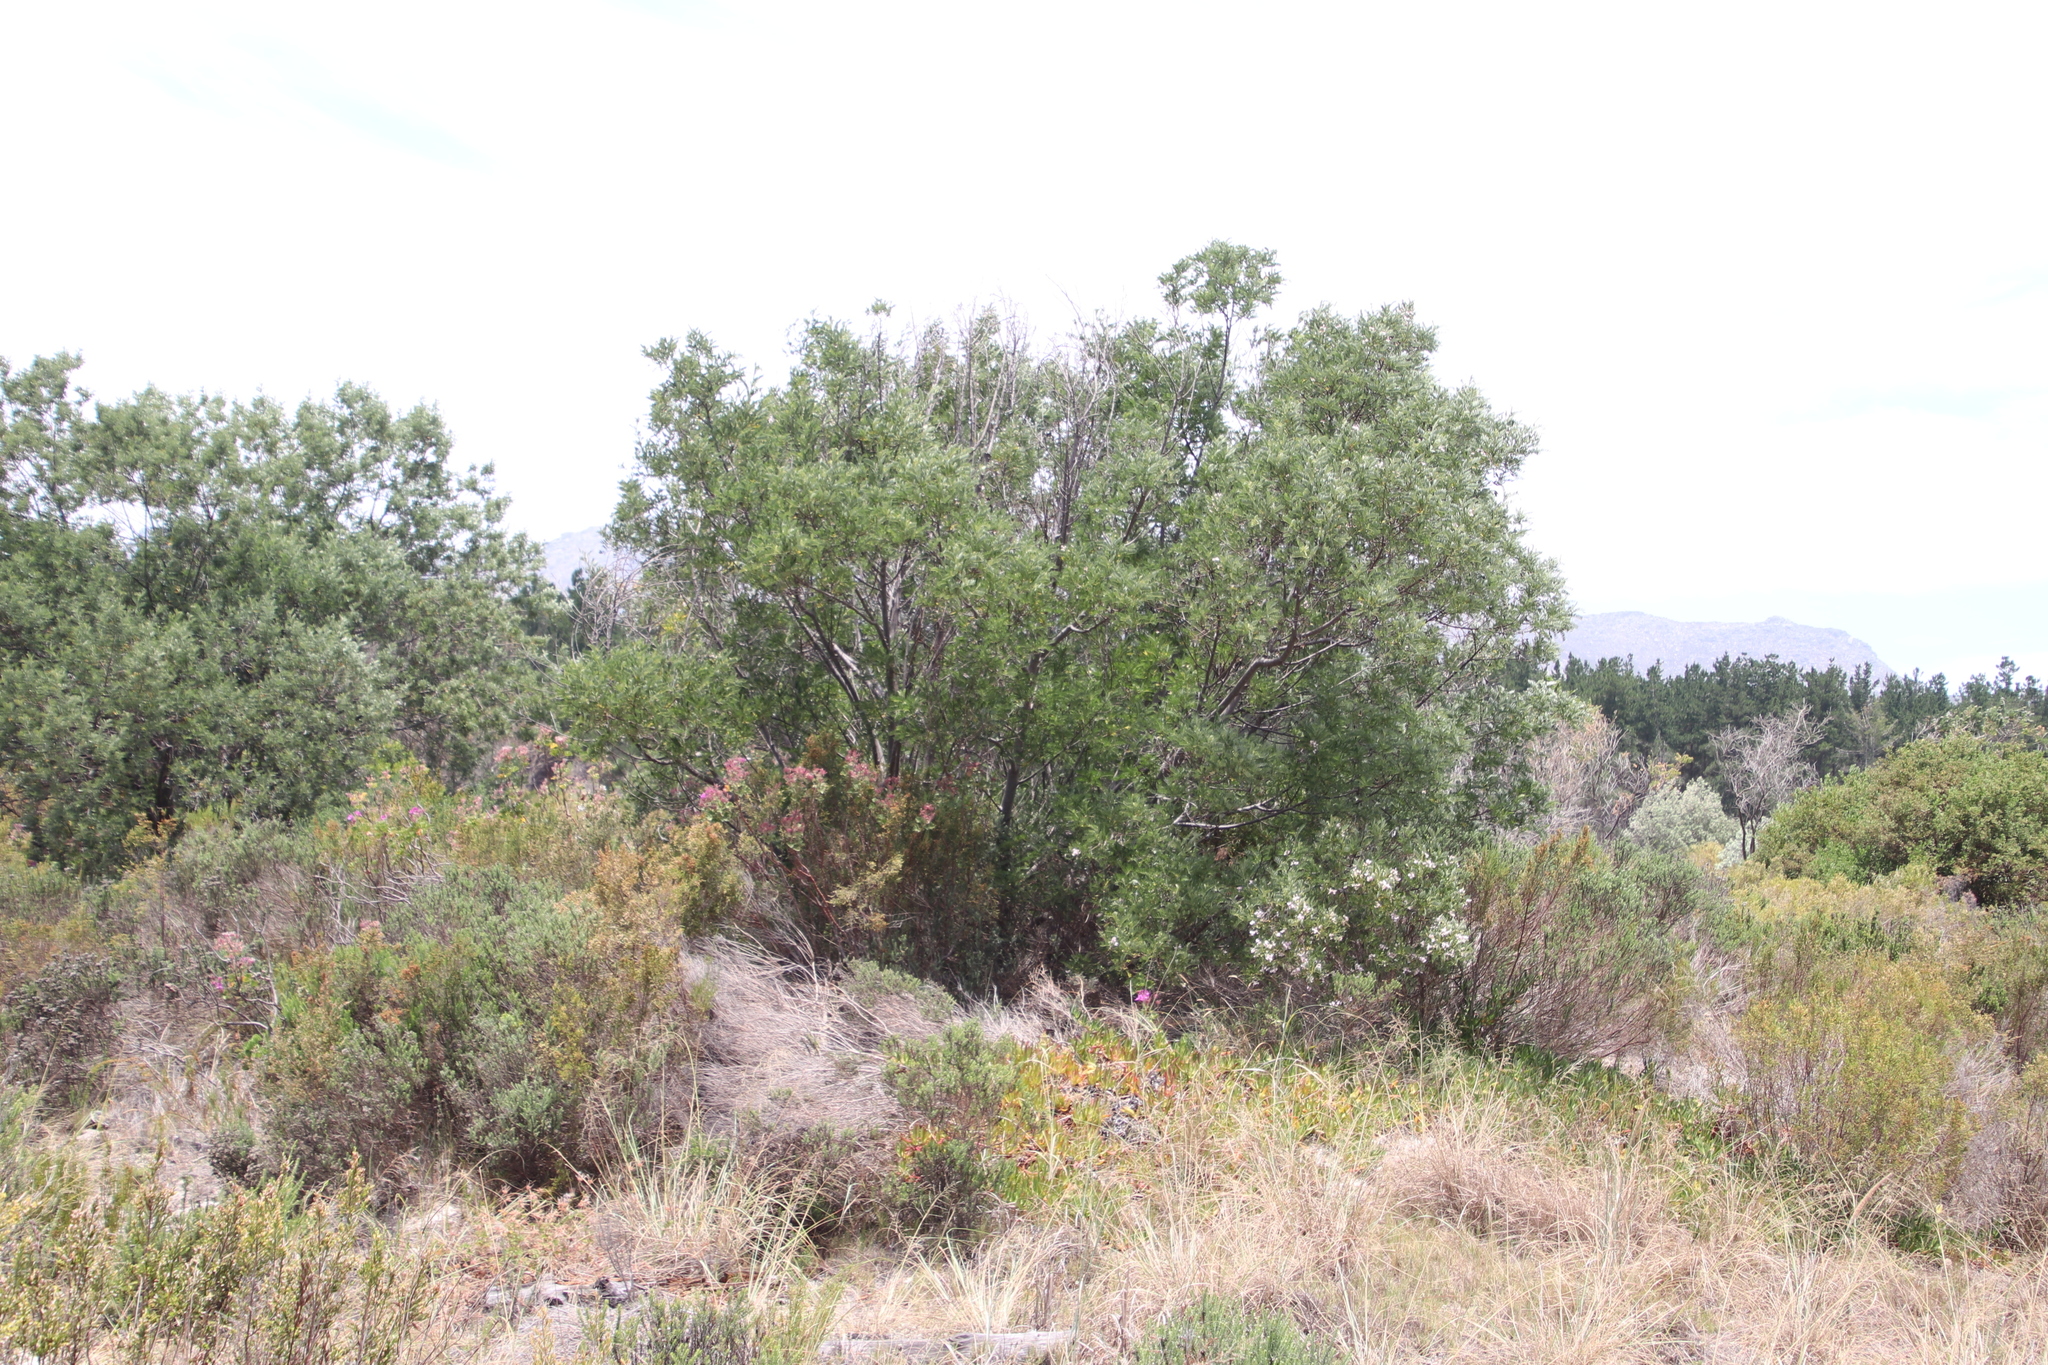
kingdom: Plantae
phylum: Tracheophyta
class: Magnoliopsida
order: Fabales
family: Fabaceae
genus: Virgilia
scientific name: Virgilia oroboides
